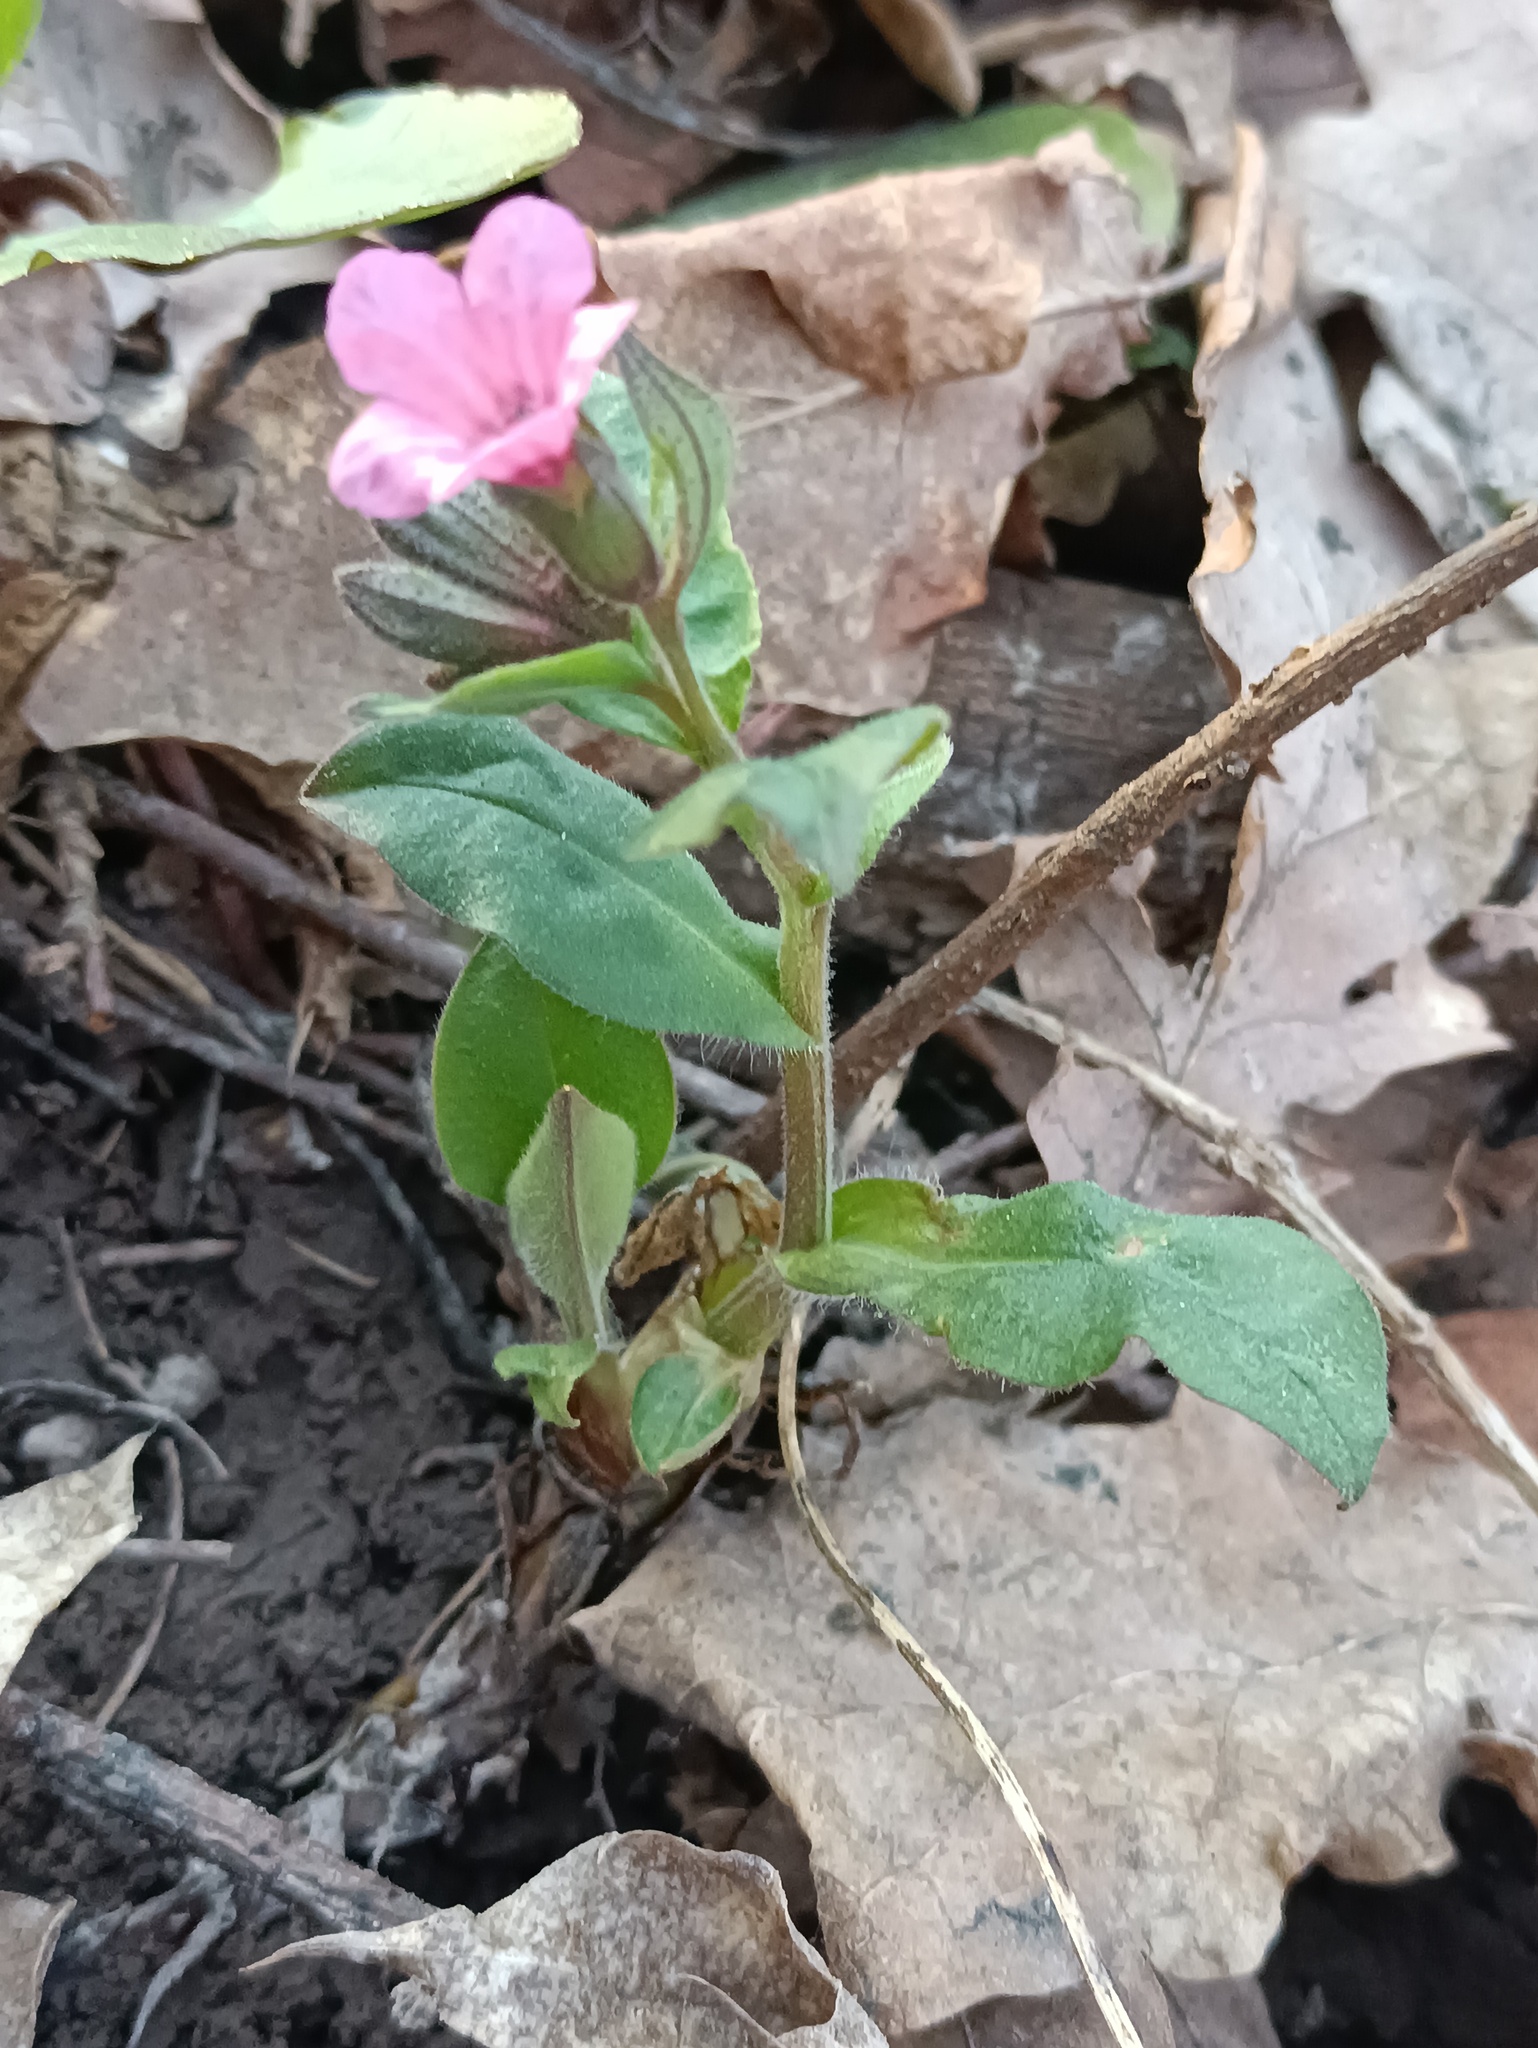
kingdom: Plantae
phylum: Tracheophyta
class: Magnoliopsida
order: Boraginales
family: Boraginaceae
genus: Pulmonaria
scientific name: Pulmonaria obscura
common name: Suffolk lungwort
